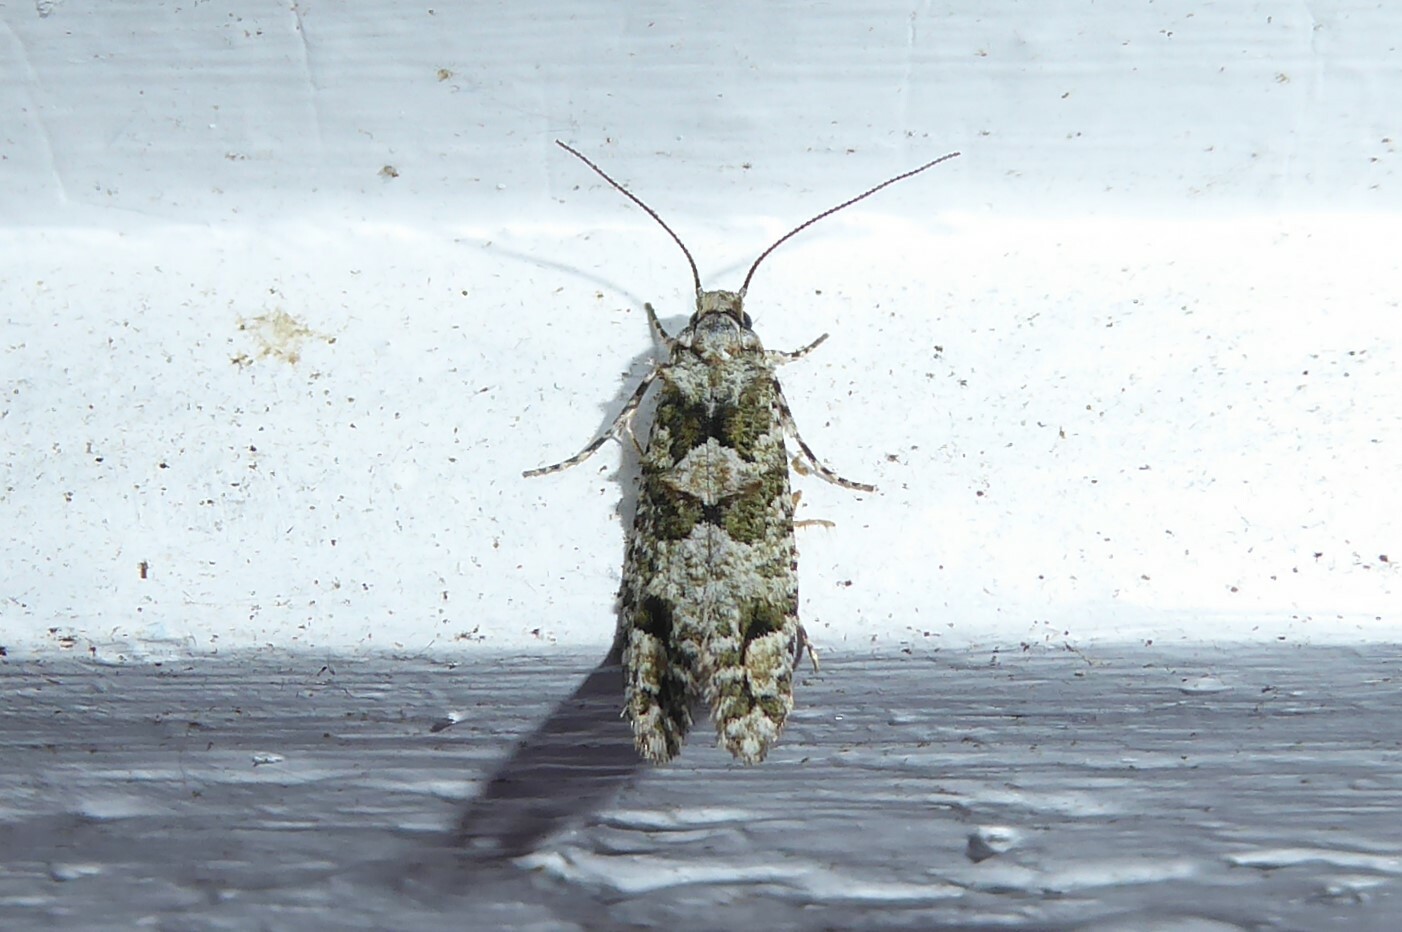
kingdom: Animalia
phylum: Arthropoda
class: Insecta
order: Lepidoptera
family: Tineidae
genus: Lysiphragma
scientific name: Lysiphragma howesii
